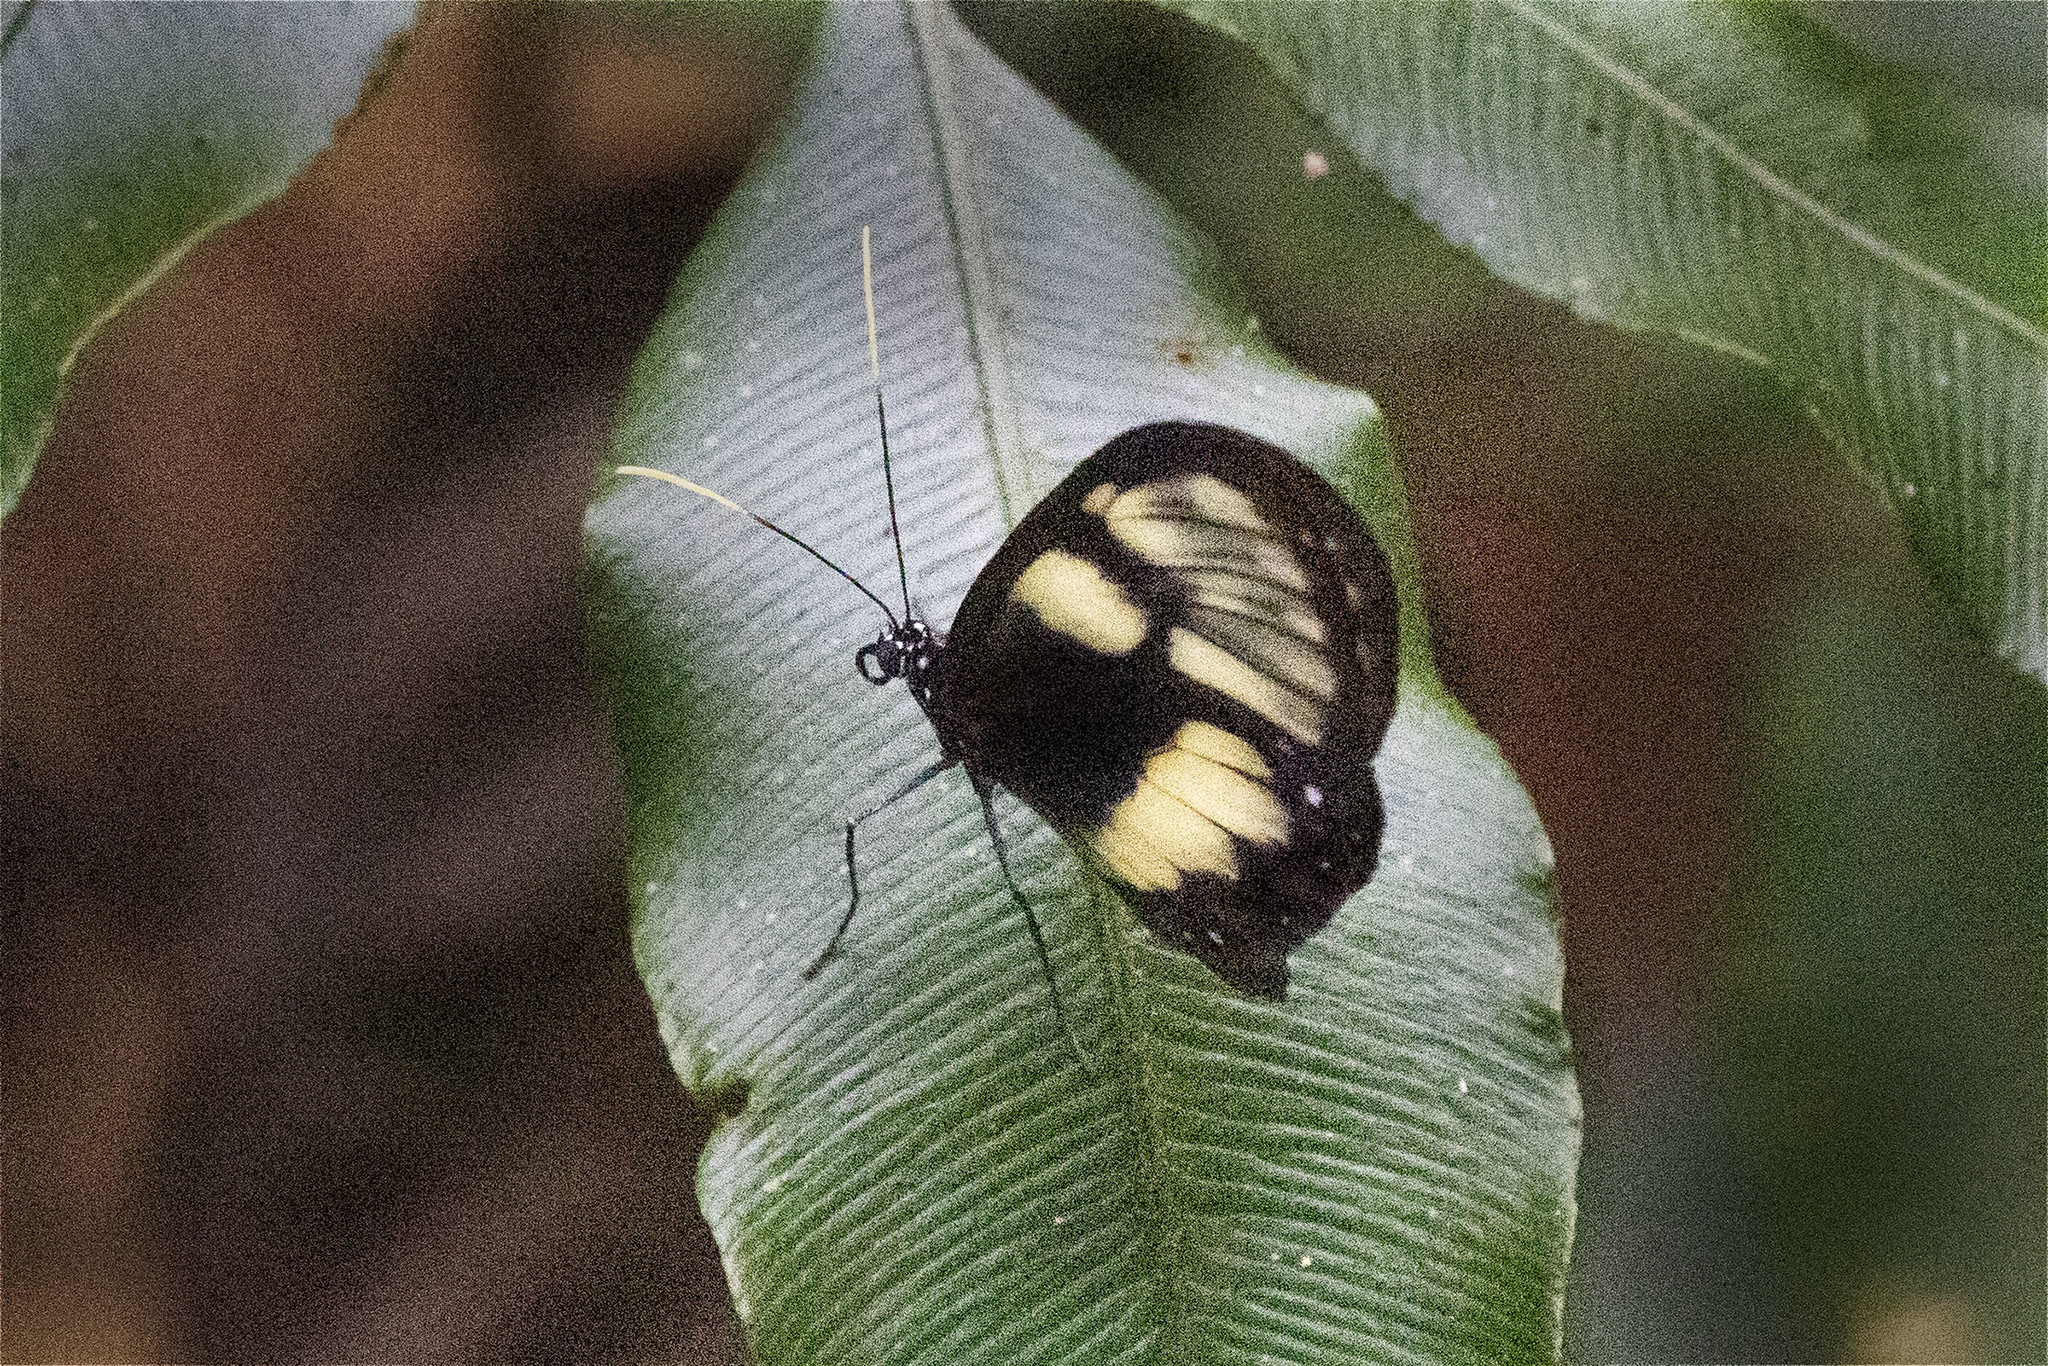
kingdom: Animalia
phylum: Arthropoda
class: Insecta
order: Lepidoptera
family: Nymphalidae
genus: Godyris
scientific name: Godyris zavaleta
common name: Zavaleta glasswing
